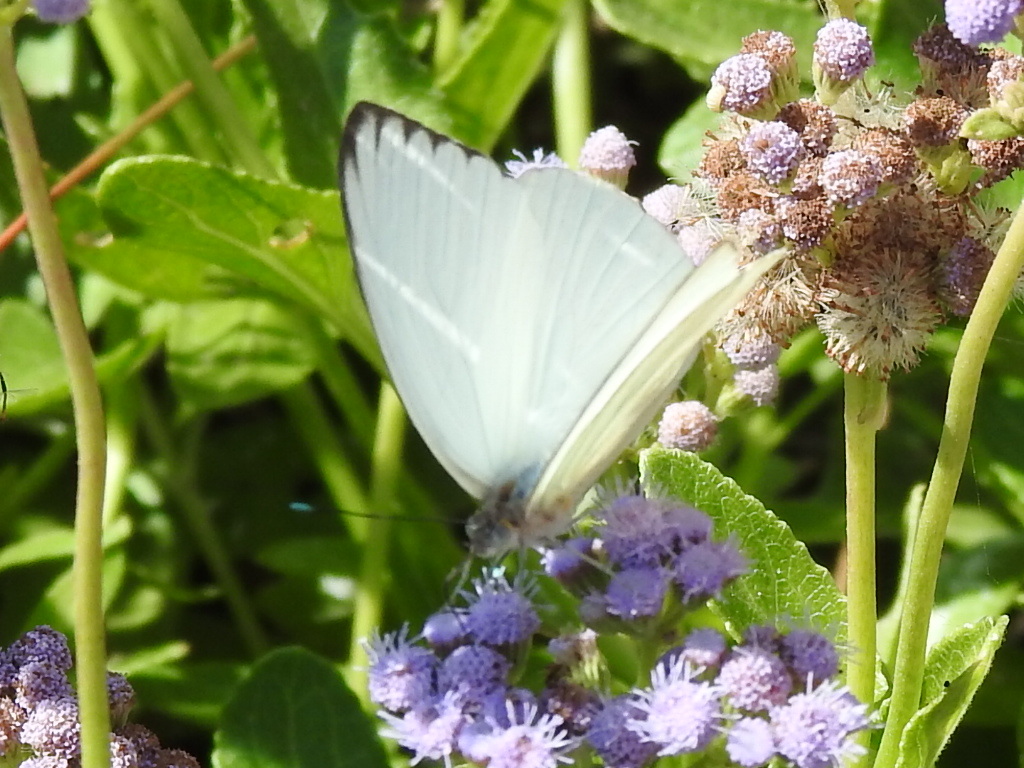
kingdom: Animalia
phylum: Arthropoda
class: Insecta
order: Lepidoptera
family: Pieridae
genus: Ascia
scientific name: Ascia monuste
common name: Great southern white
